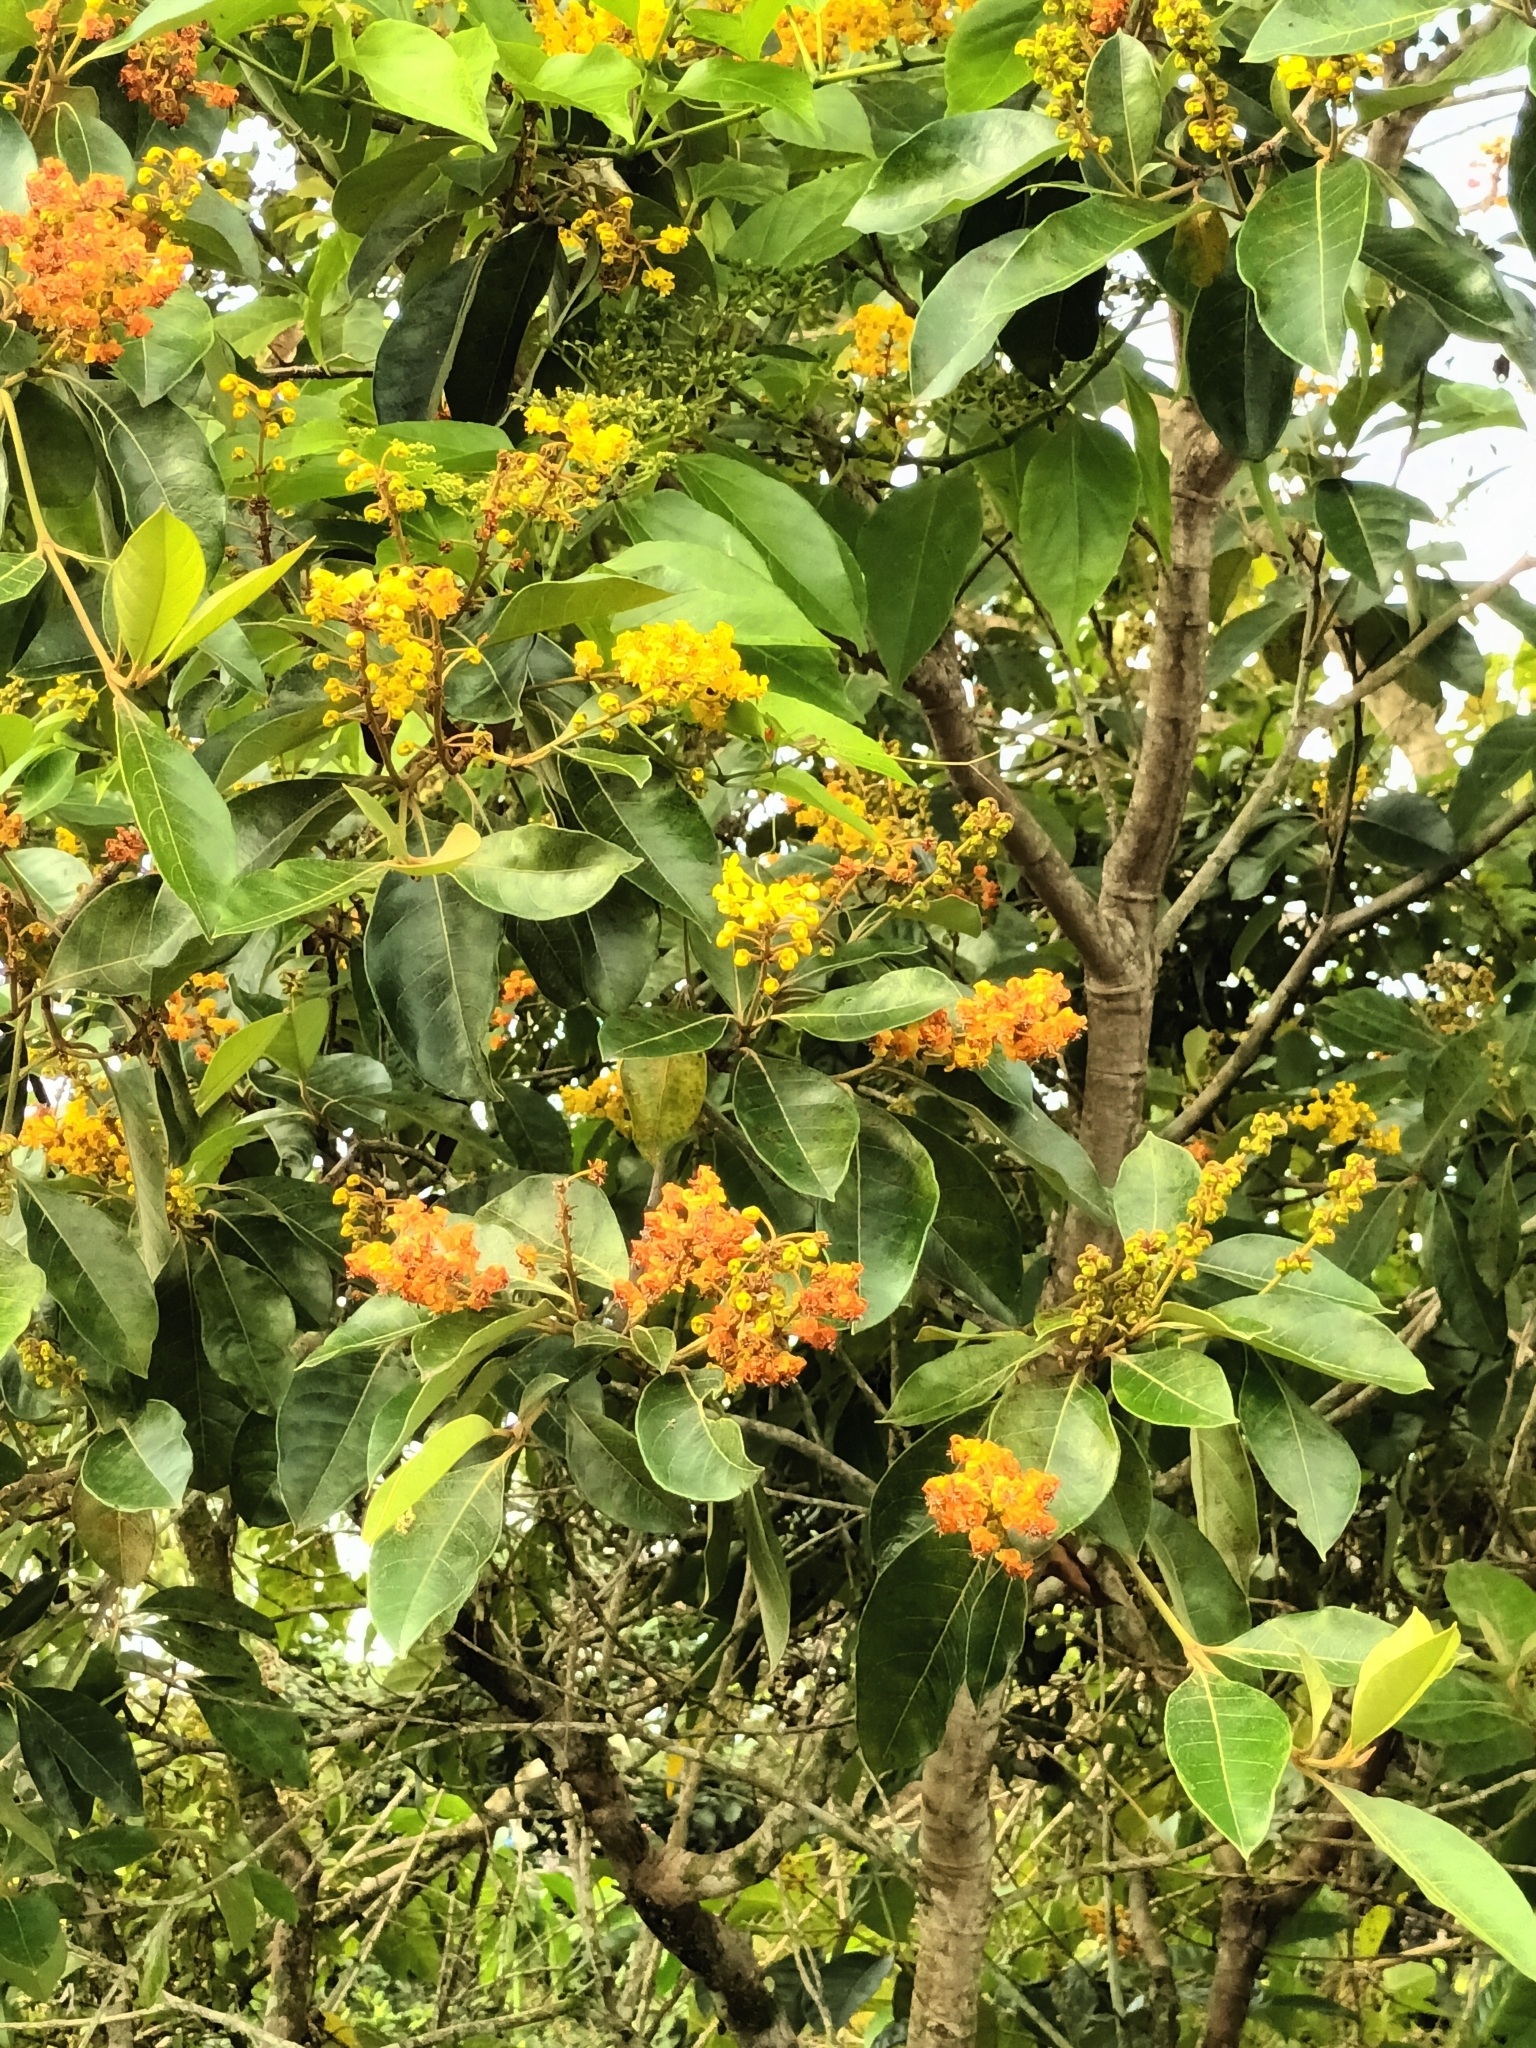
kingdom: Plantae
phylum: Tracheophyta
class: Magnoliopsida
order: Malpighiales
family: Malpighiaceae
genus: Byrsonima
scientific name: Byrsonima crassifolia
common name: Golden spoon
